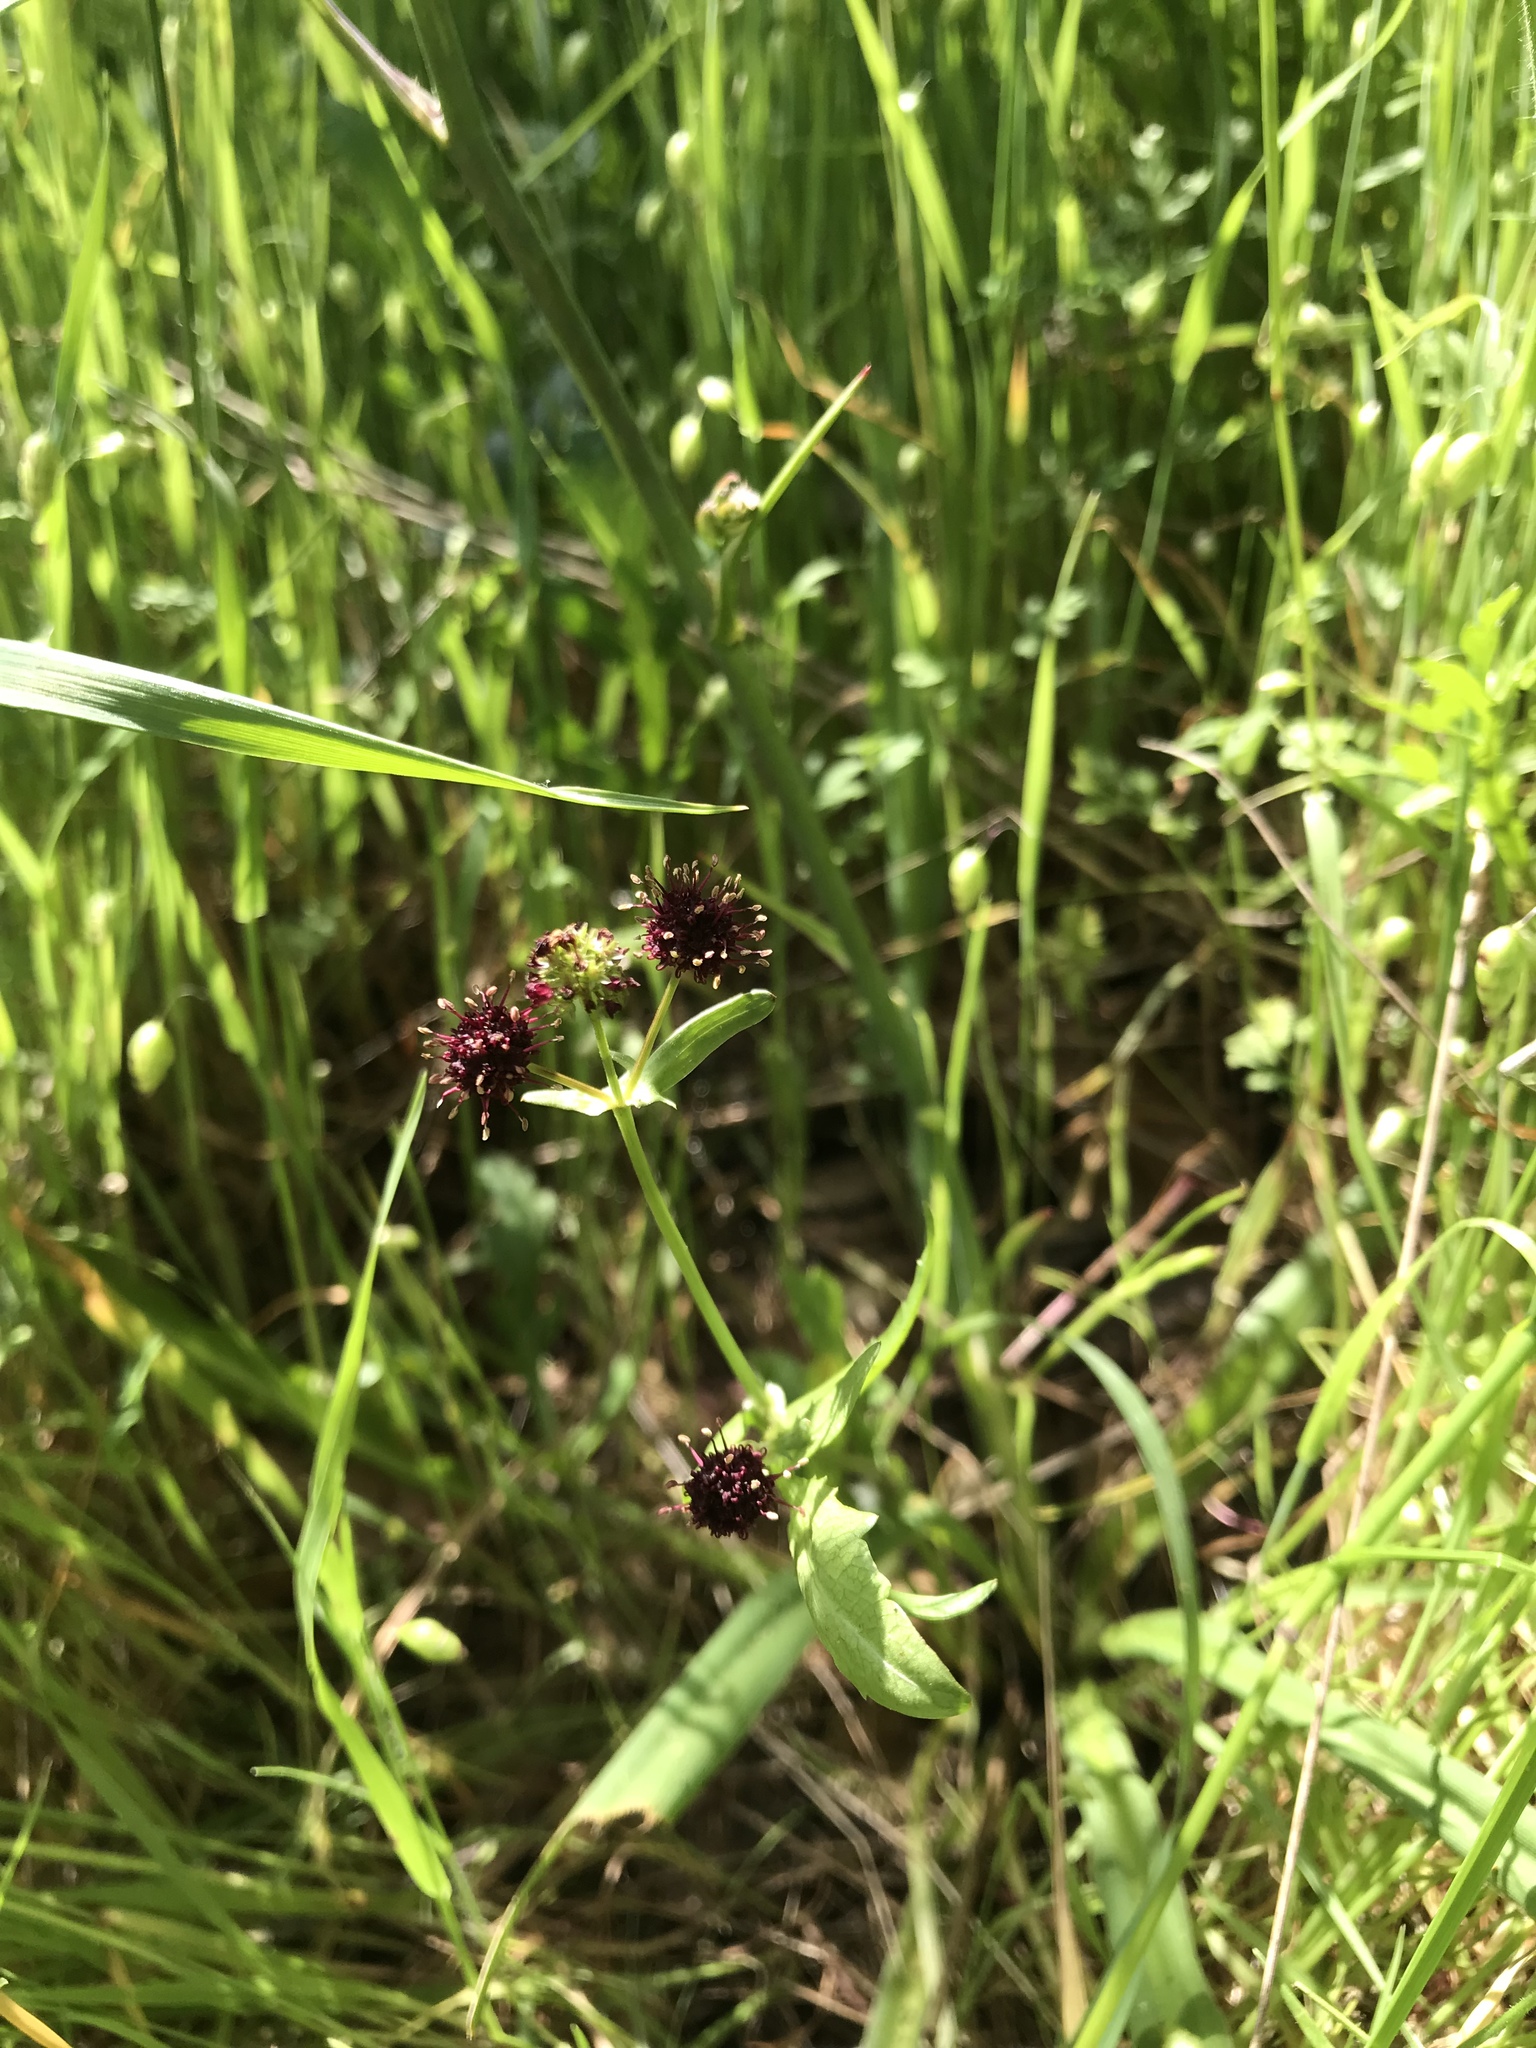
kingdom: Plantae
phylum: Tracheophyta
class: Magnoliopsida
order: Apiales
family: Apiaceae
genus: Sanicula
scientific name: Sanicula bipinnatifida
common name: Shoe-buttons
